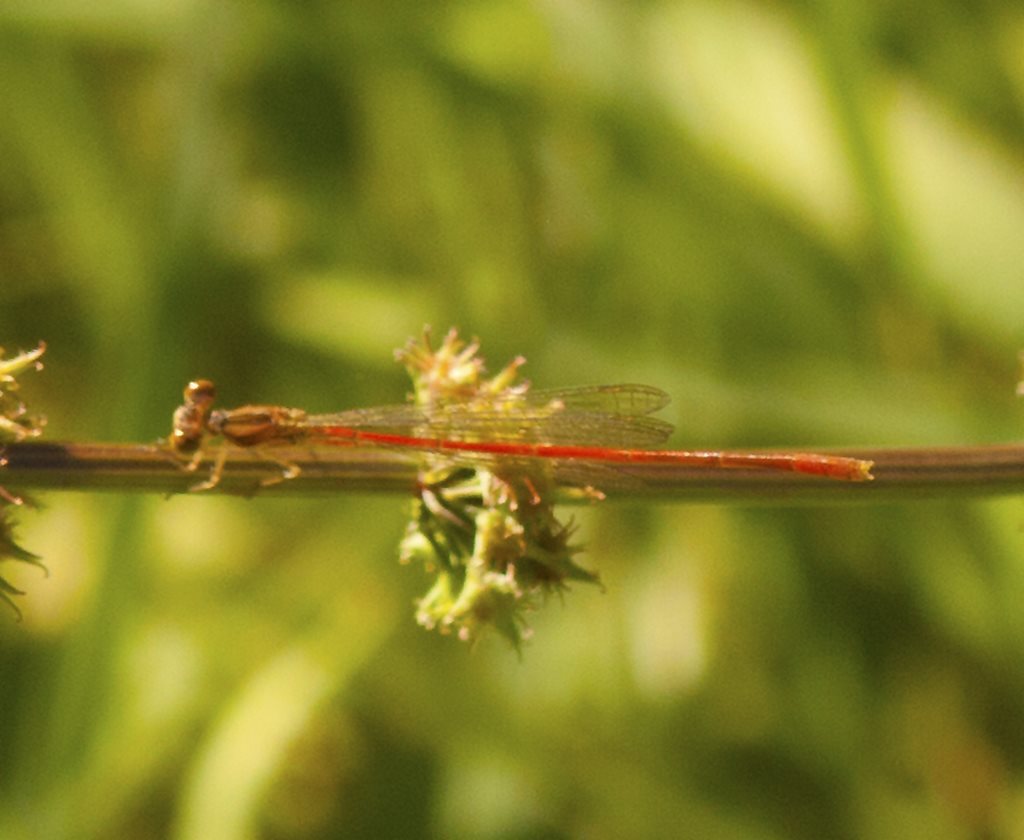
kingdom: Animalia
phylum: Arthropoda
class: Insecta
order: Odonata
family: Coenagrionidae
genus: Argiocnemis
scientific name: Argiocnemis rubescens
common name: Red-tipped shadefly
